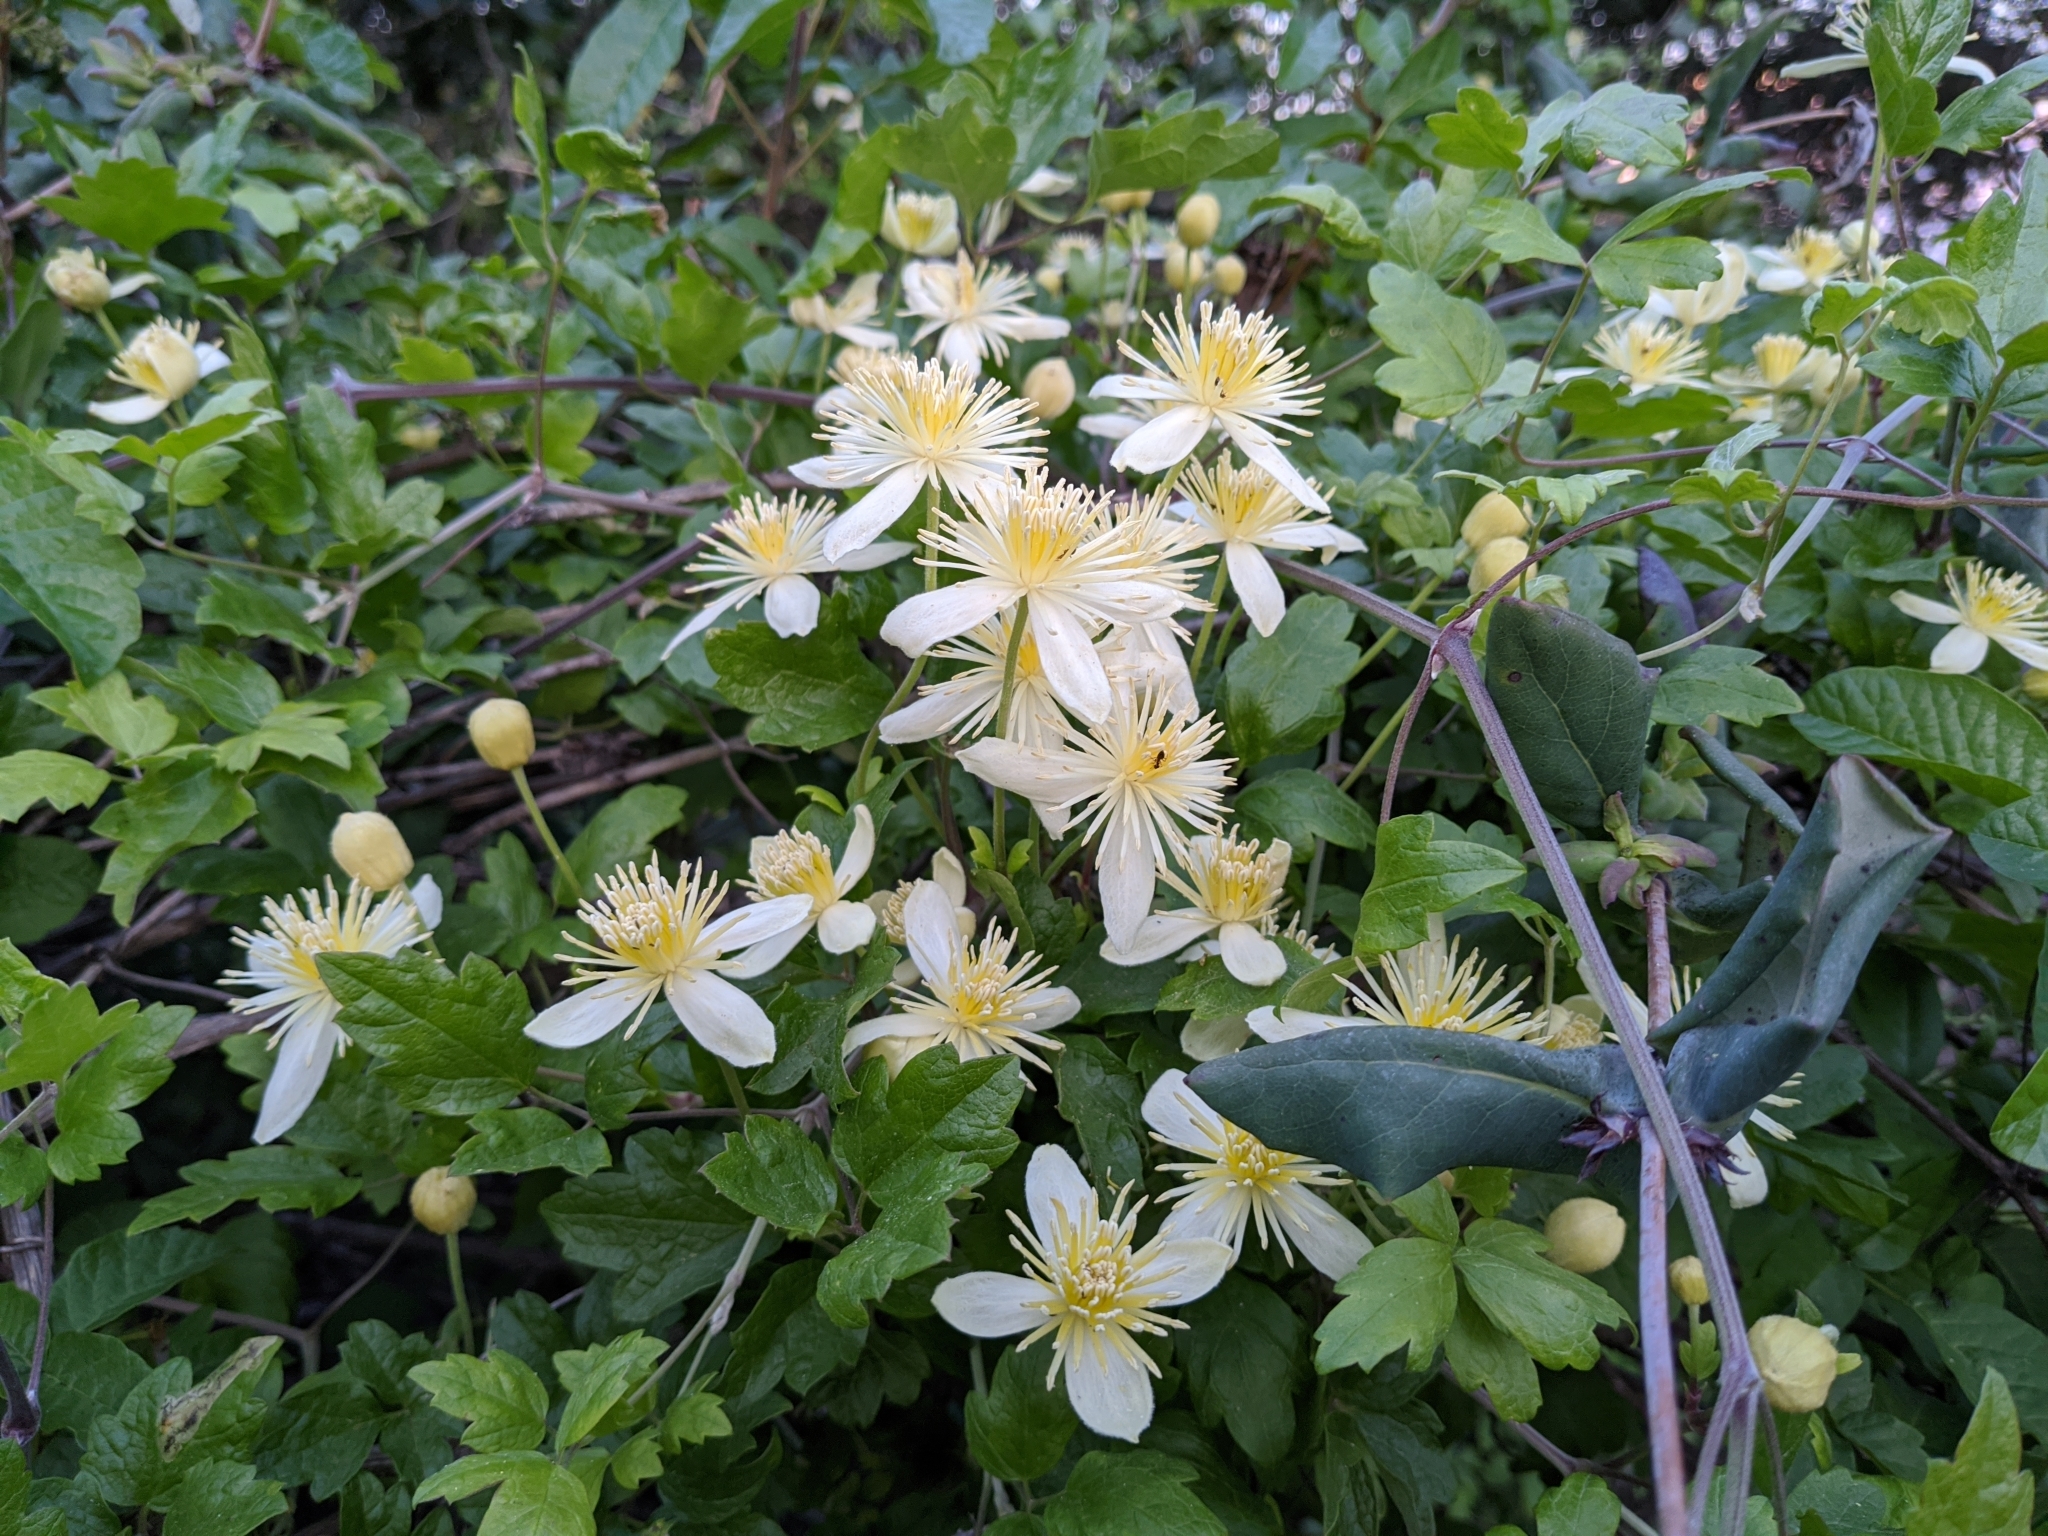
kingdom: Plantae
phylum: Tracheophyta
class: Magnoliopsida
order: Ranunculales
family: Ranunculaceae
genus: Clematis
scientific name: Clematis lasiantha
